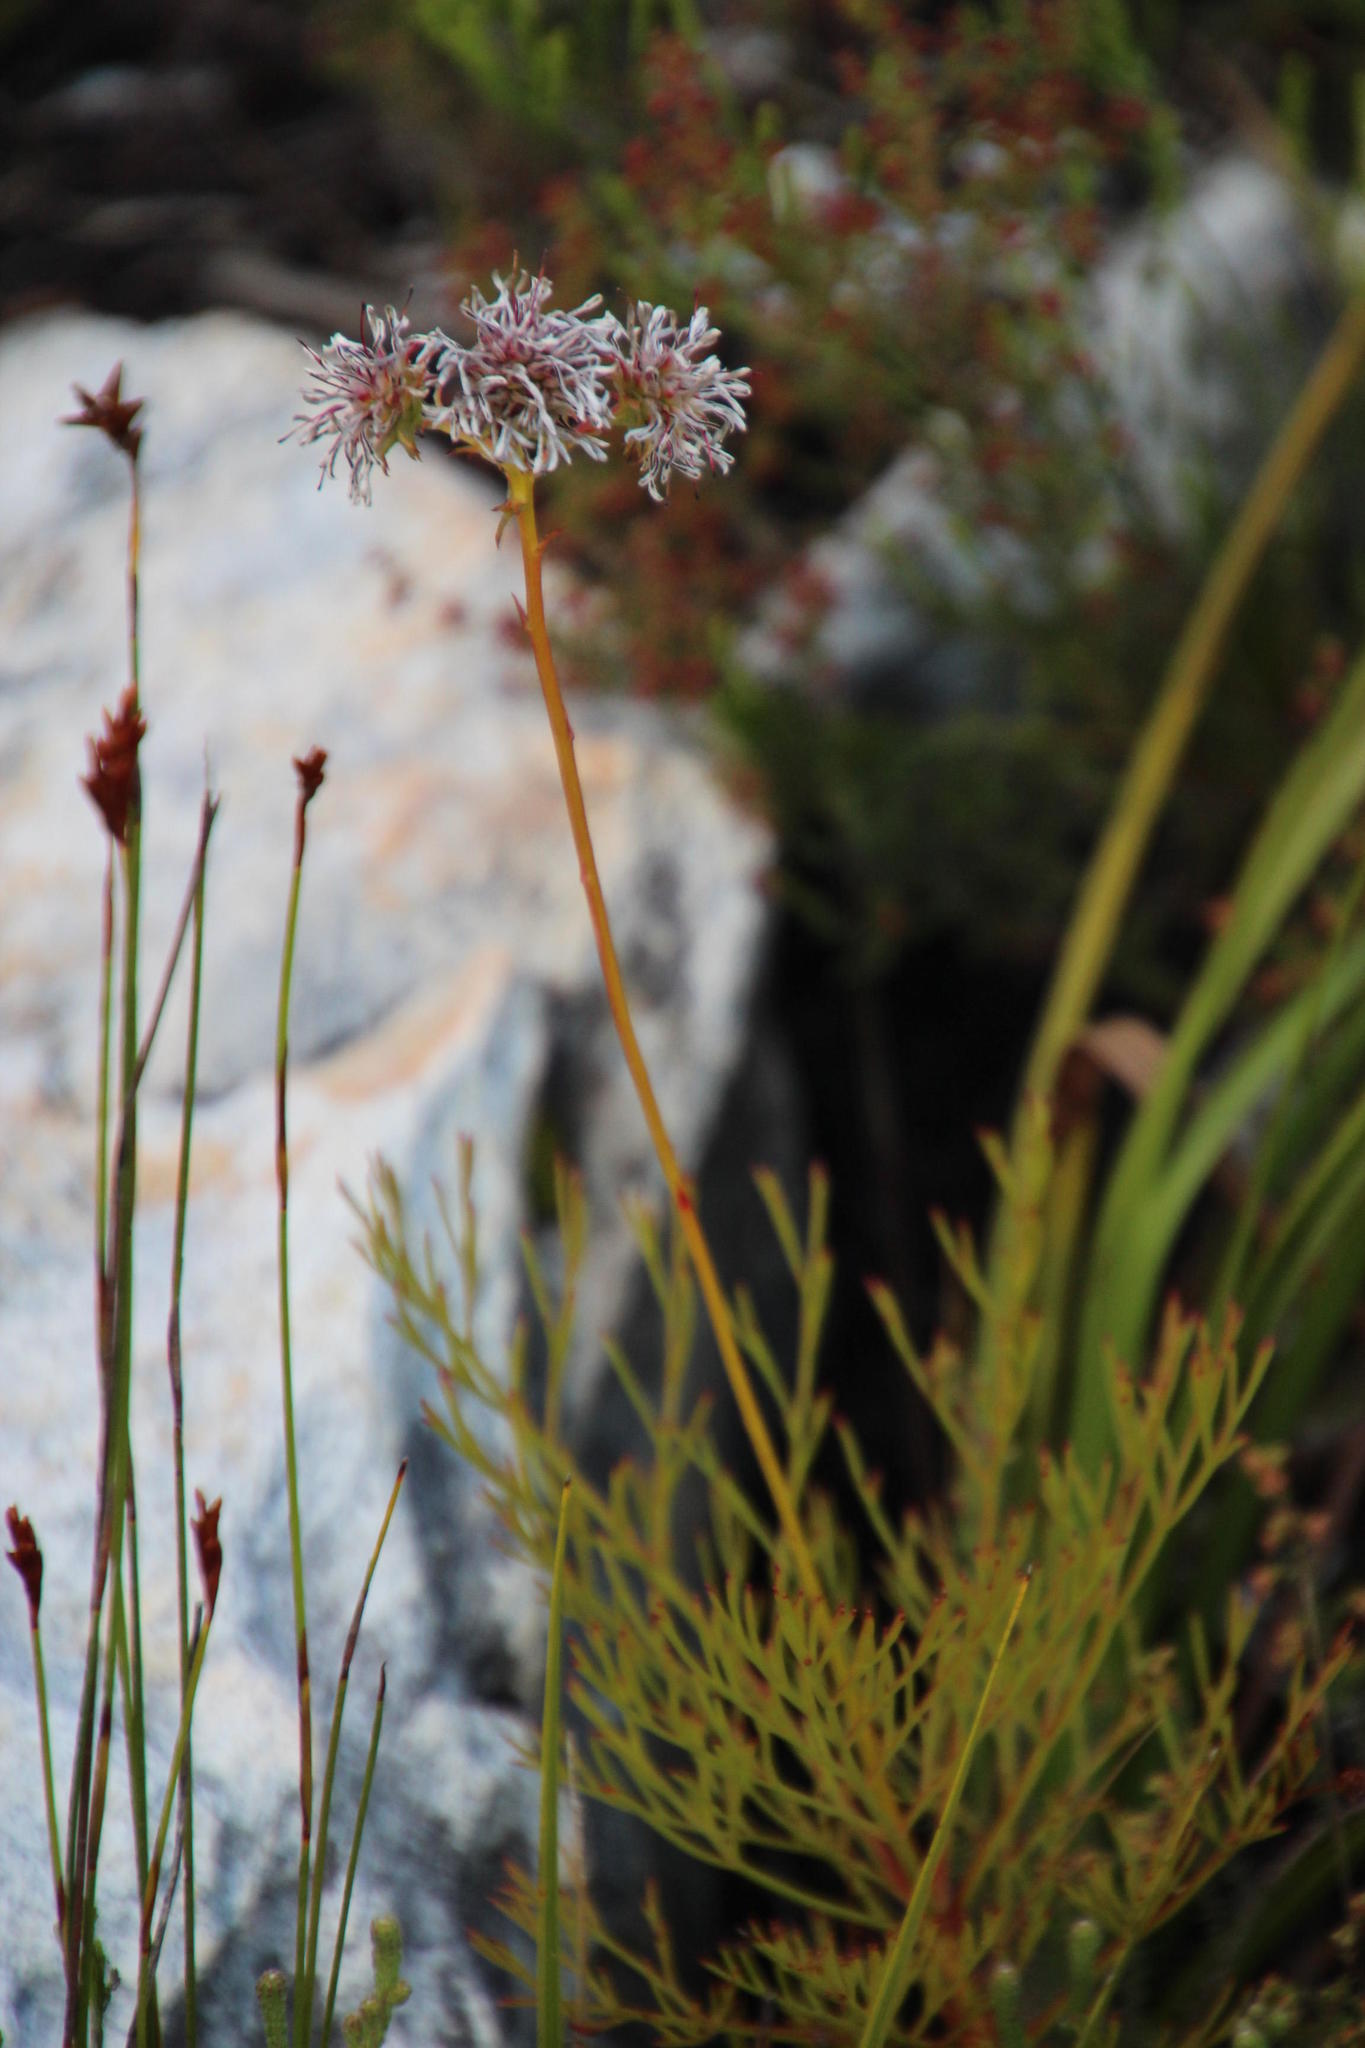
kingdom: Plantae
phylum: Tracheophyta
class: Magnoliopsida
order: Proteales
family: Proteaceae
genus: Serruria
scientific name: Serruria elongata
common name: Long-stalk spiderhead
